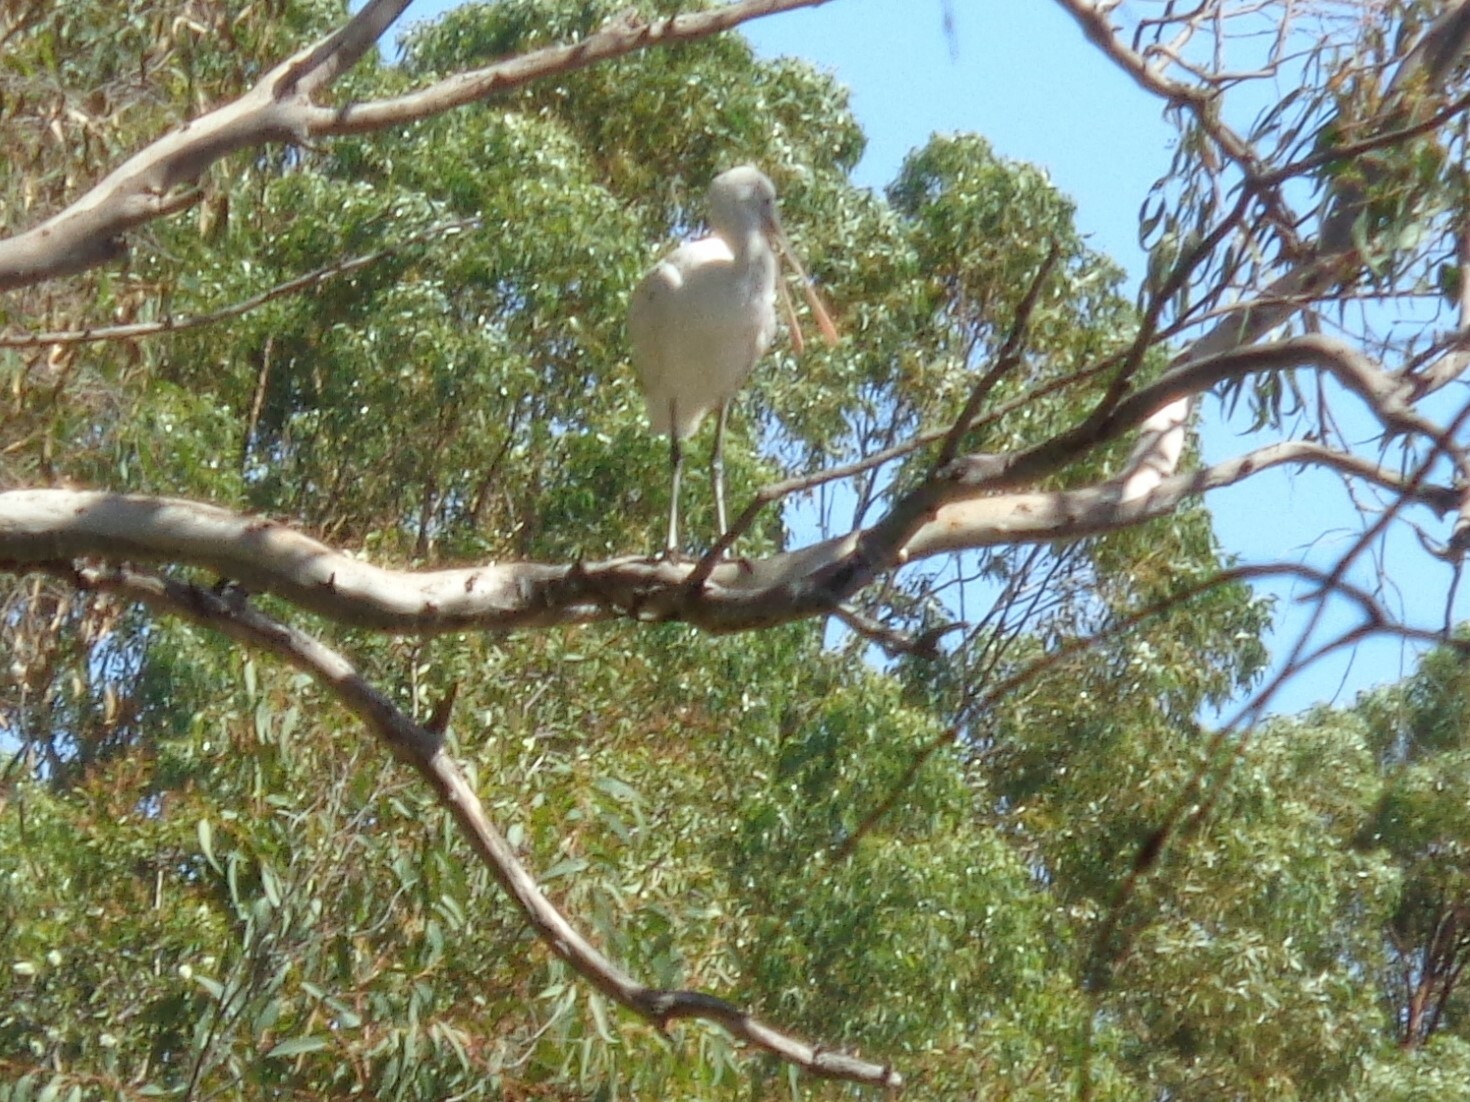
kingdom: Animalia
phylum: Chordata
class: Aves
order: Pelecaniformes
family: Threskiornithidae
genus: Platalea
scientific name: Platalea flavipes
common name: Yellow-billed spoonbill
